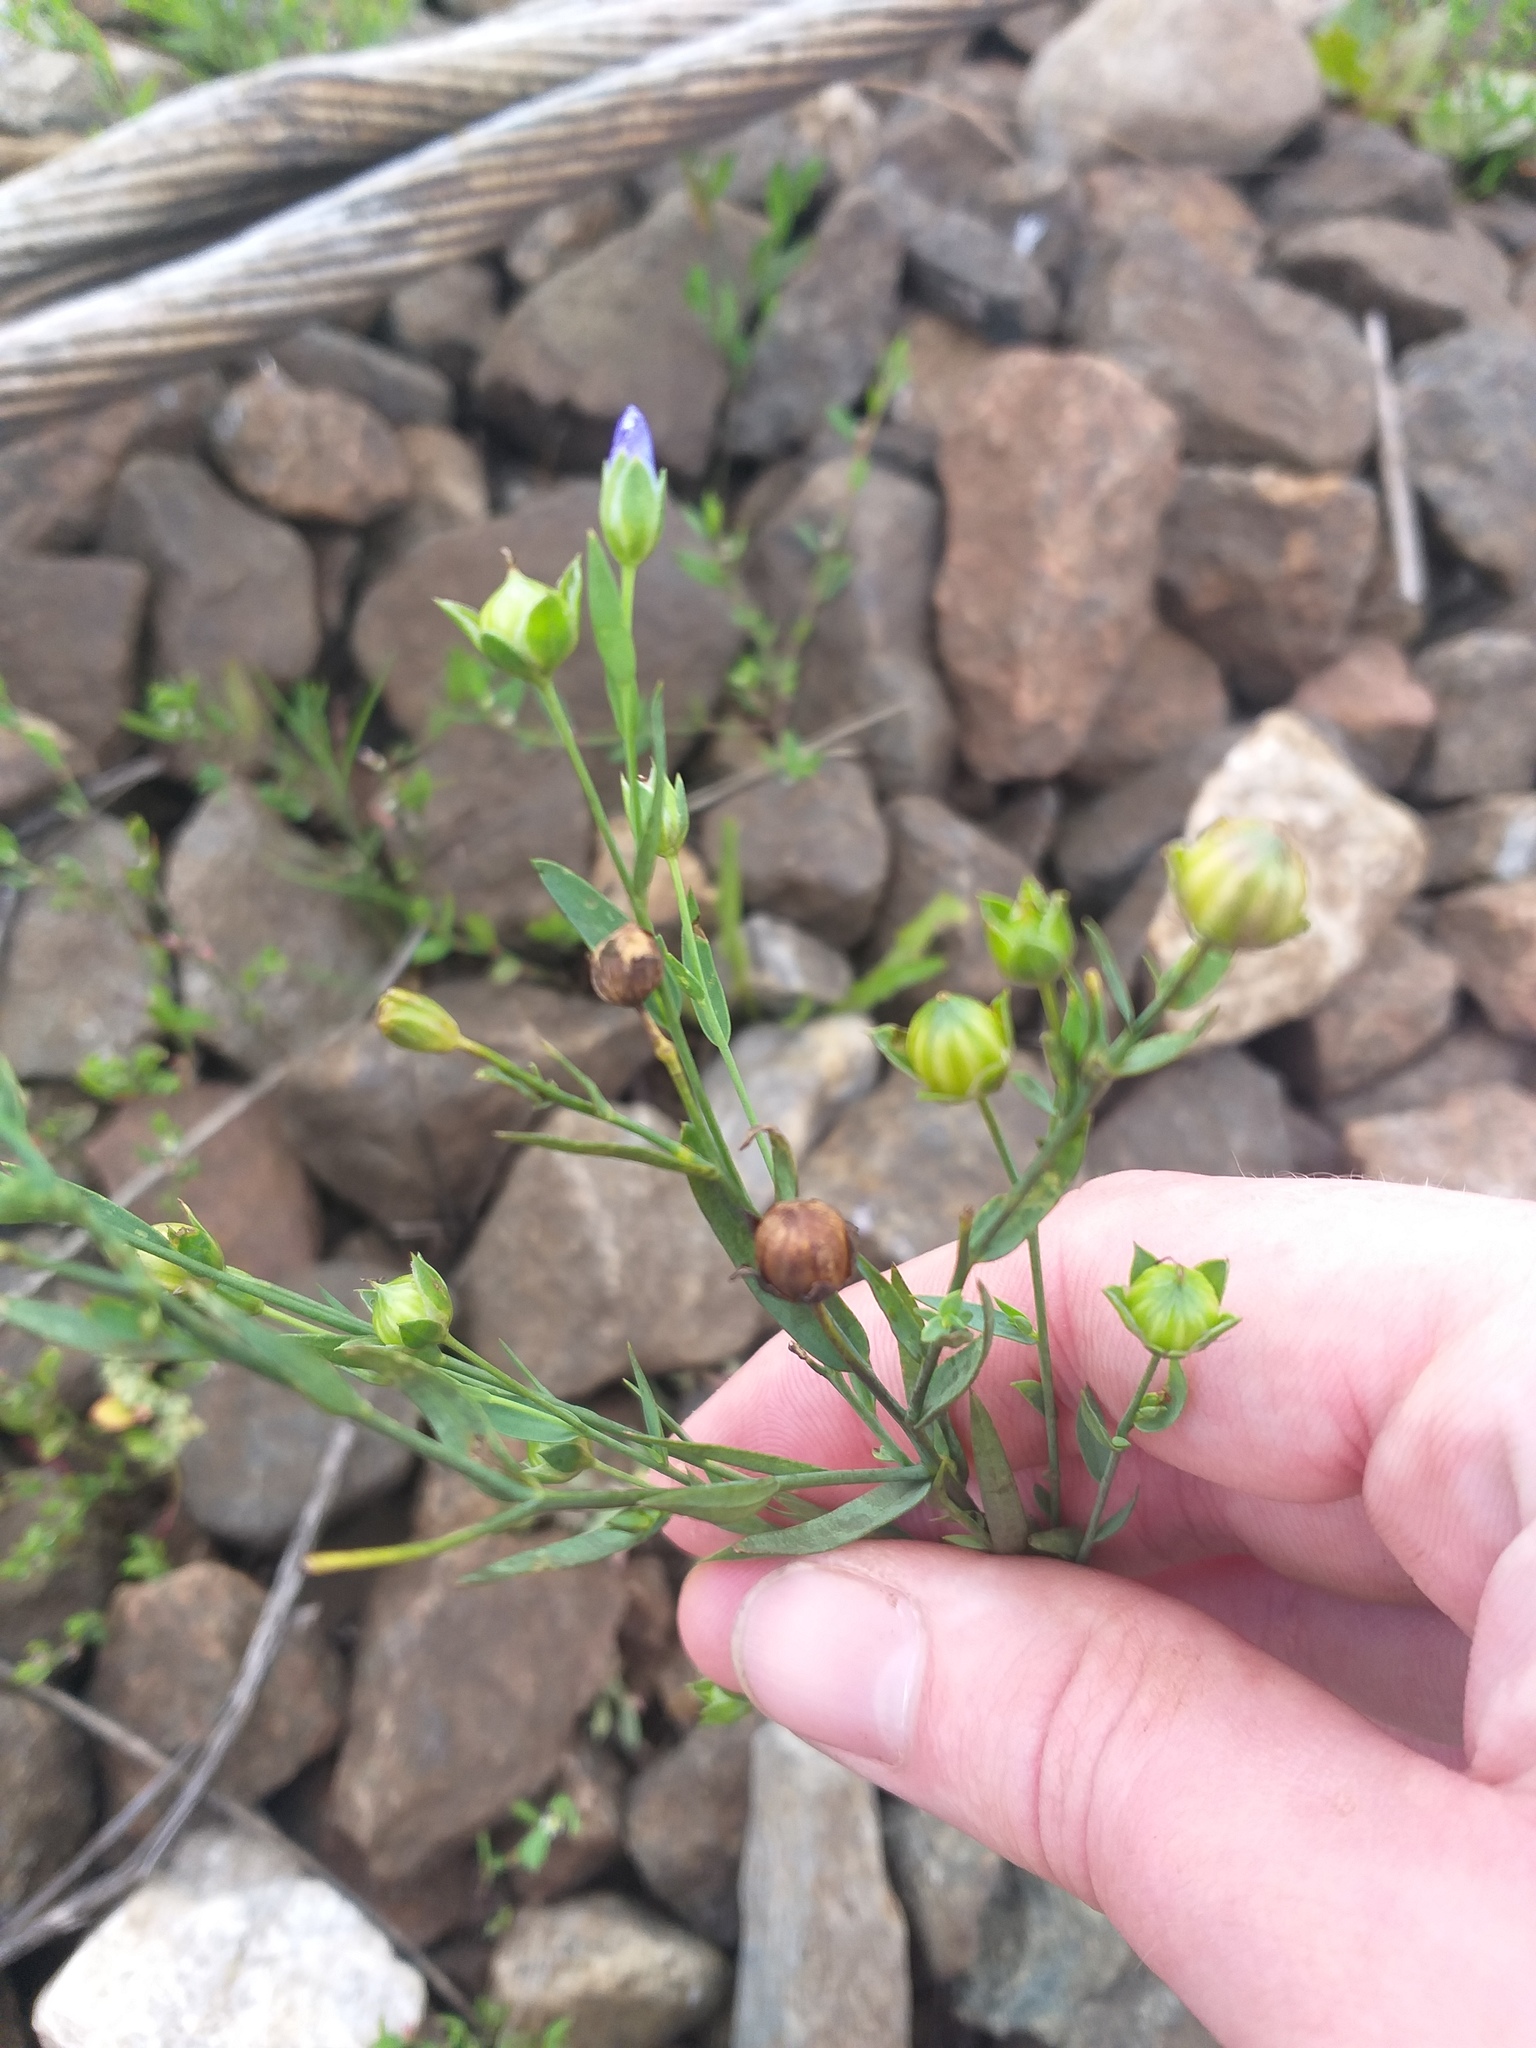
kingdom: Plantae
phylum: Tracheophyta
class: Magnoliopsida
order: Malpighiales
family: Linaceae
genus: Linum
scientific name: Linum usitatissimum
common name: Flax
